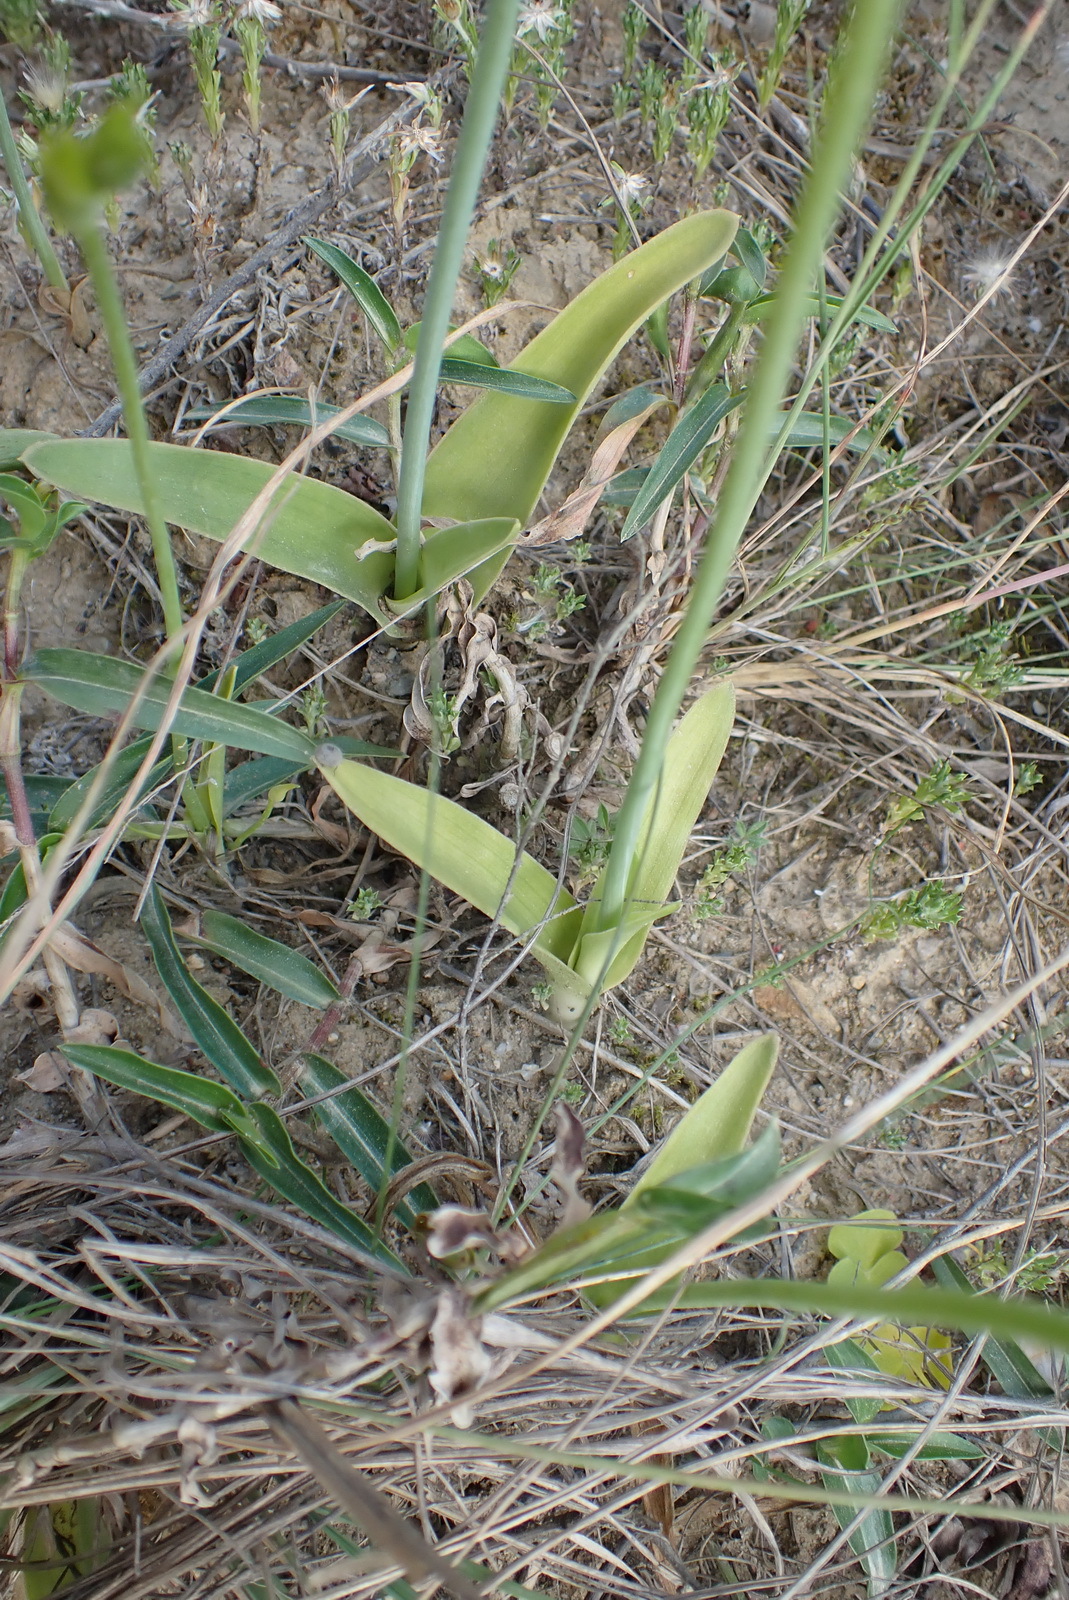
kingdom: Plantae
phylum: Tracheophyta
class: Liliopsida
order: Asparagales
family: Asparagaceae
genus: Ornithogalum
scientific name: Ornithogalum dubium
